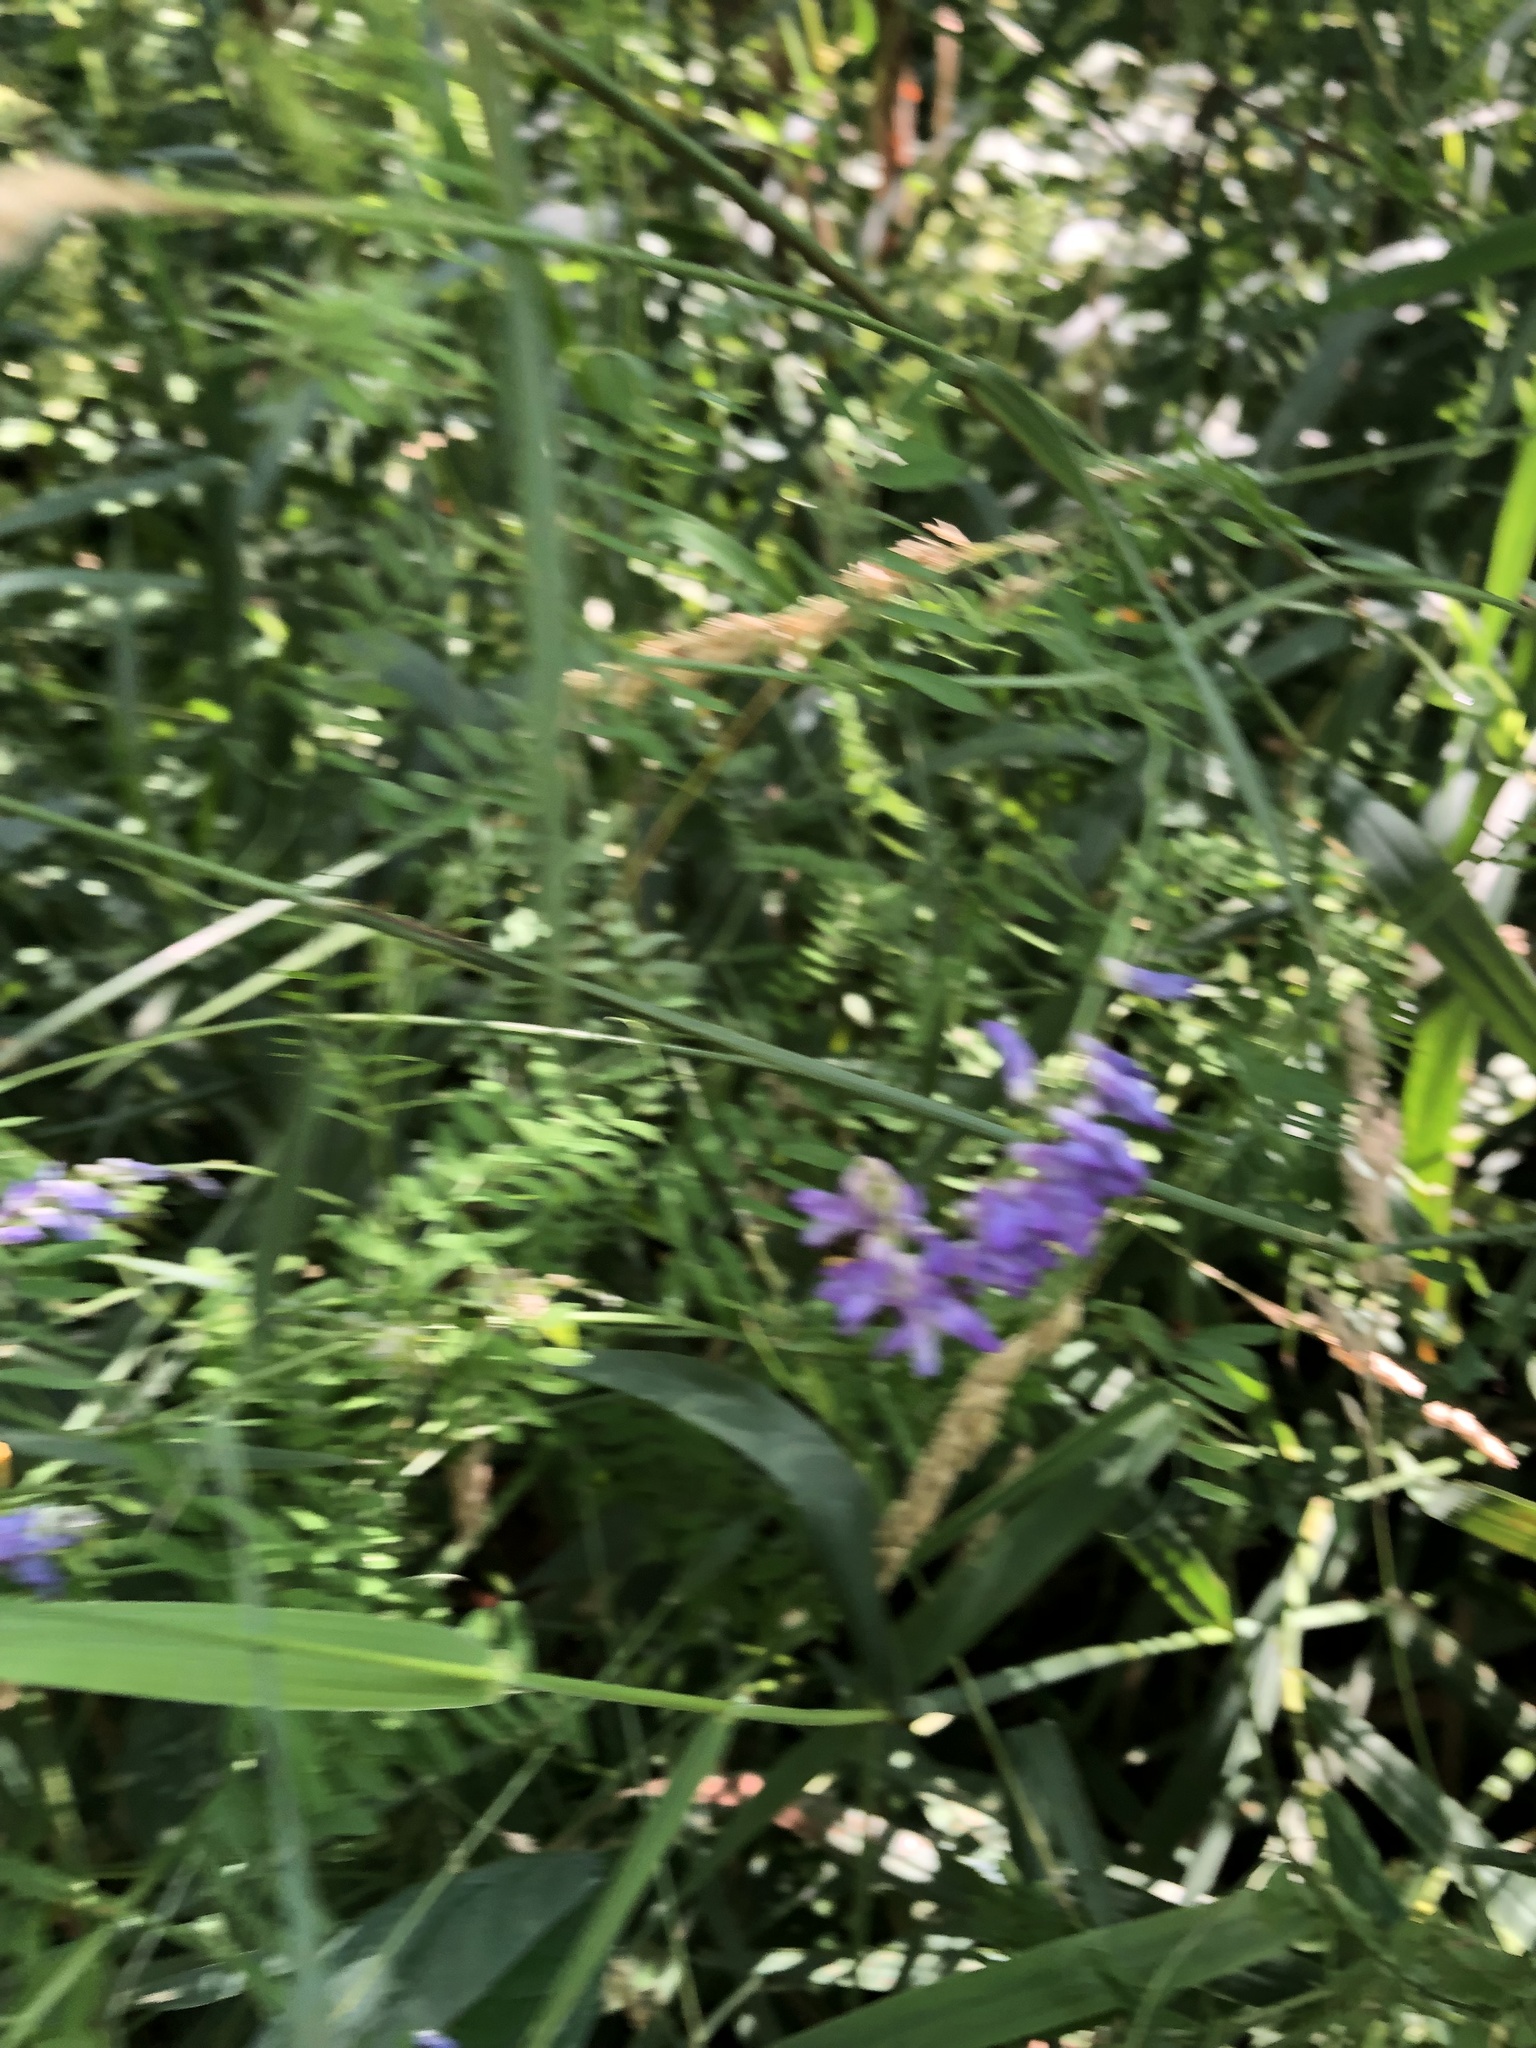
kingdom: Plantae
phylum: Tracheophyta
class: Magnoliopsida
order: Fabales
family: Fabaceae
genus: Vicia
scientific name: Vicia cracca
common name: Bird vetch
